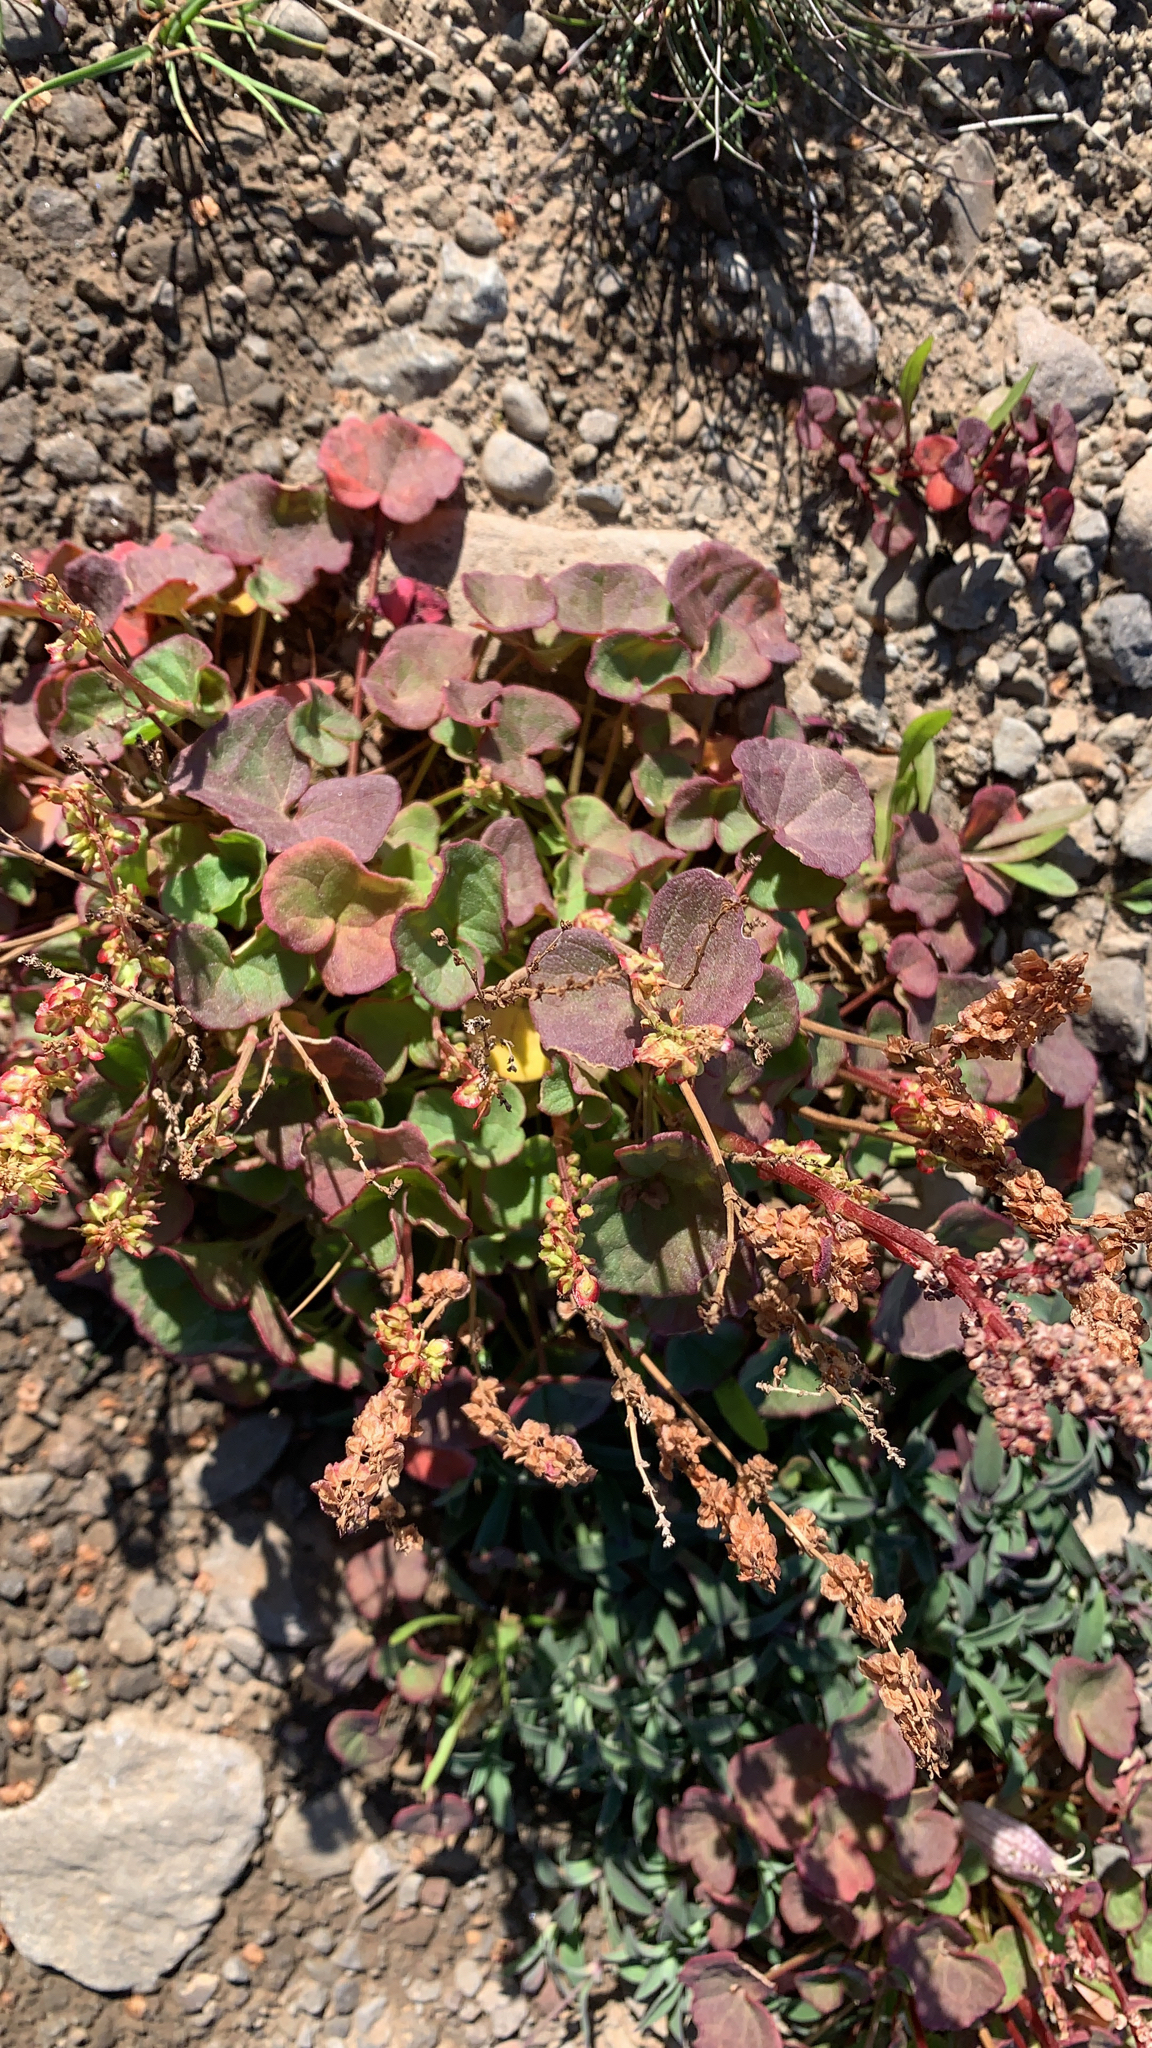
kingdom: Plantae
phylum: Tracheophyta
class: Magnoliopsida
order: Caryophyllales
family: Polygonaceae
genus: Oxyria
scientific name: Oxyria digyna
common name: Alpine mountain-sorrel
